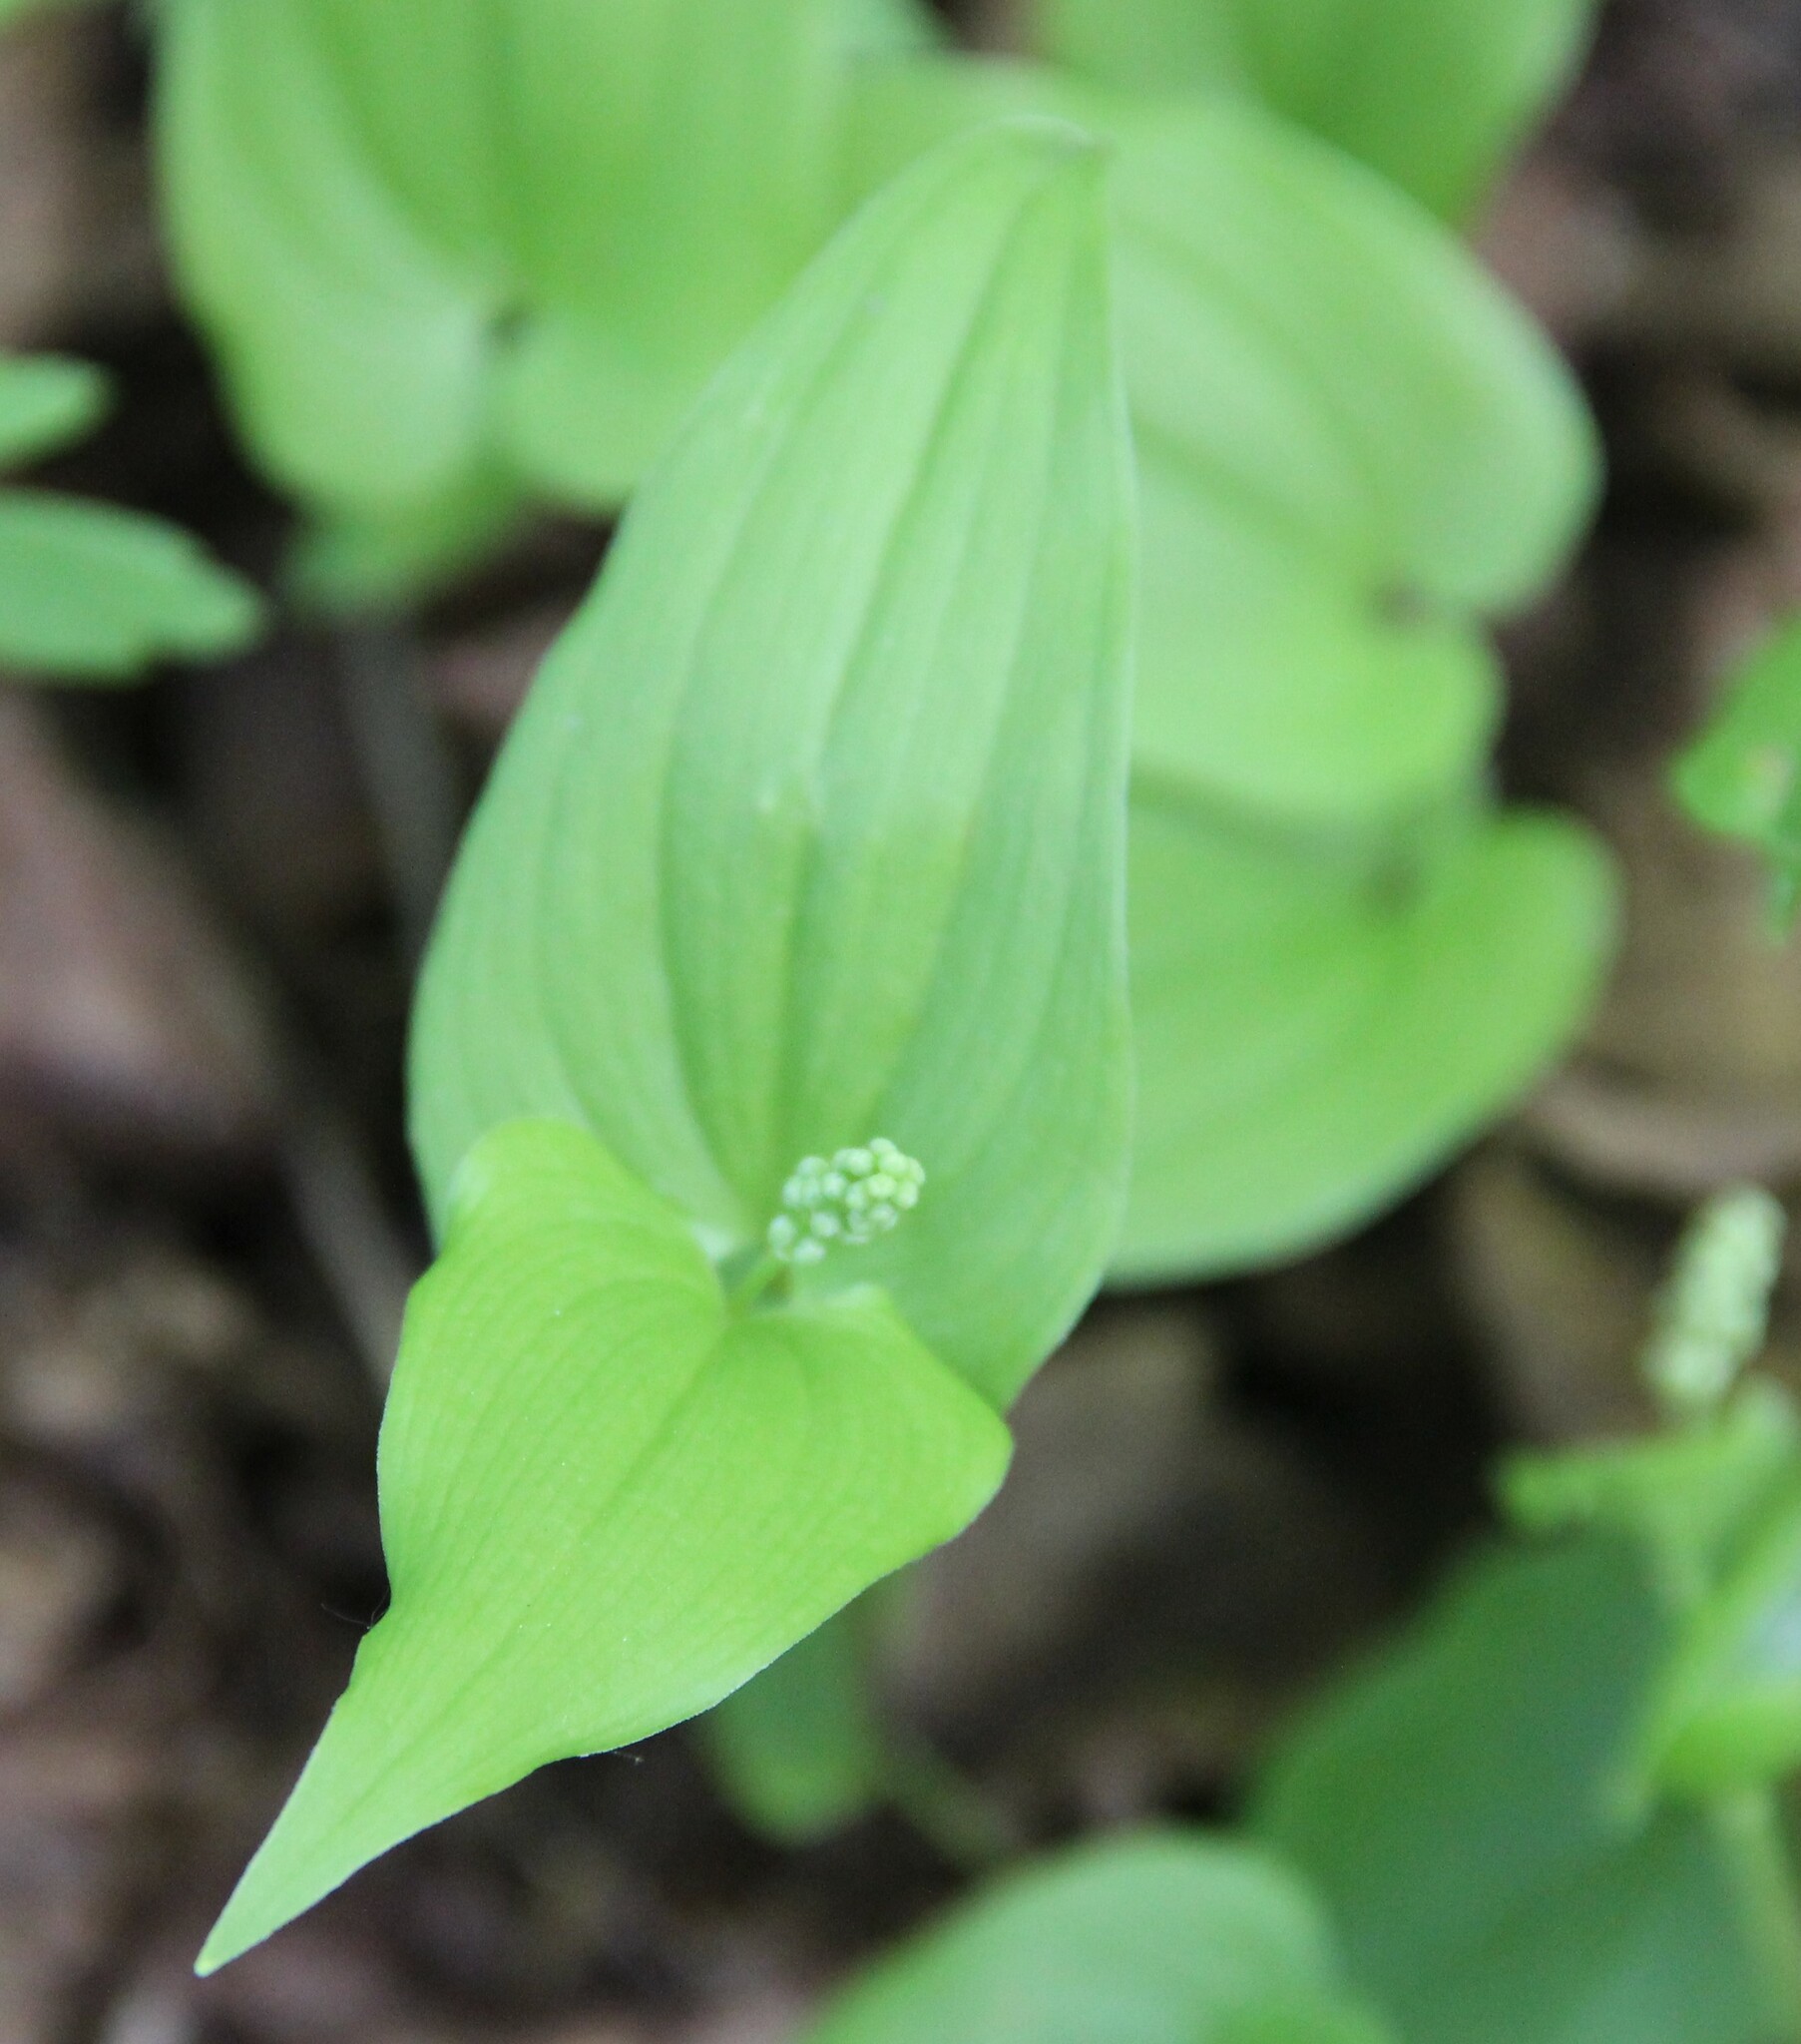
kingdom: Plantae
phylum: Tracheophyta
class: Liliopsida
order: Asparagales
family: Asparagaceae
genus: Maianthemum
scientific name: Maianthemum bifolium
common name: May lily
